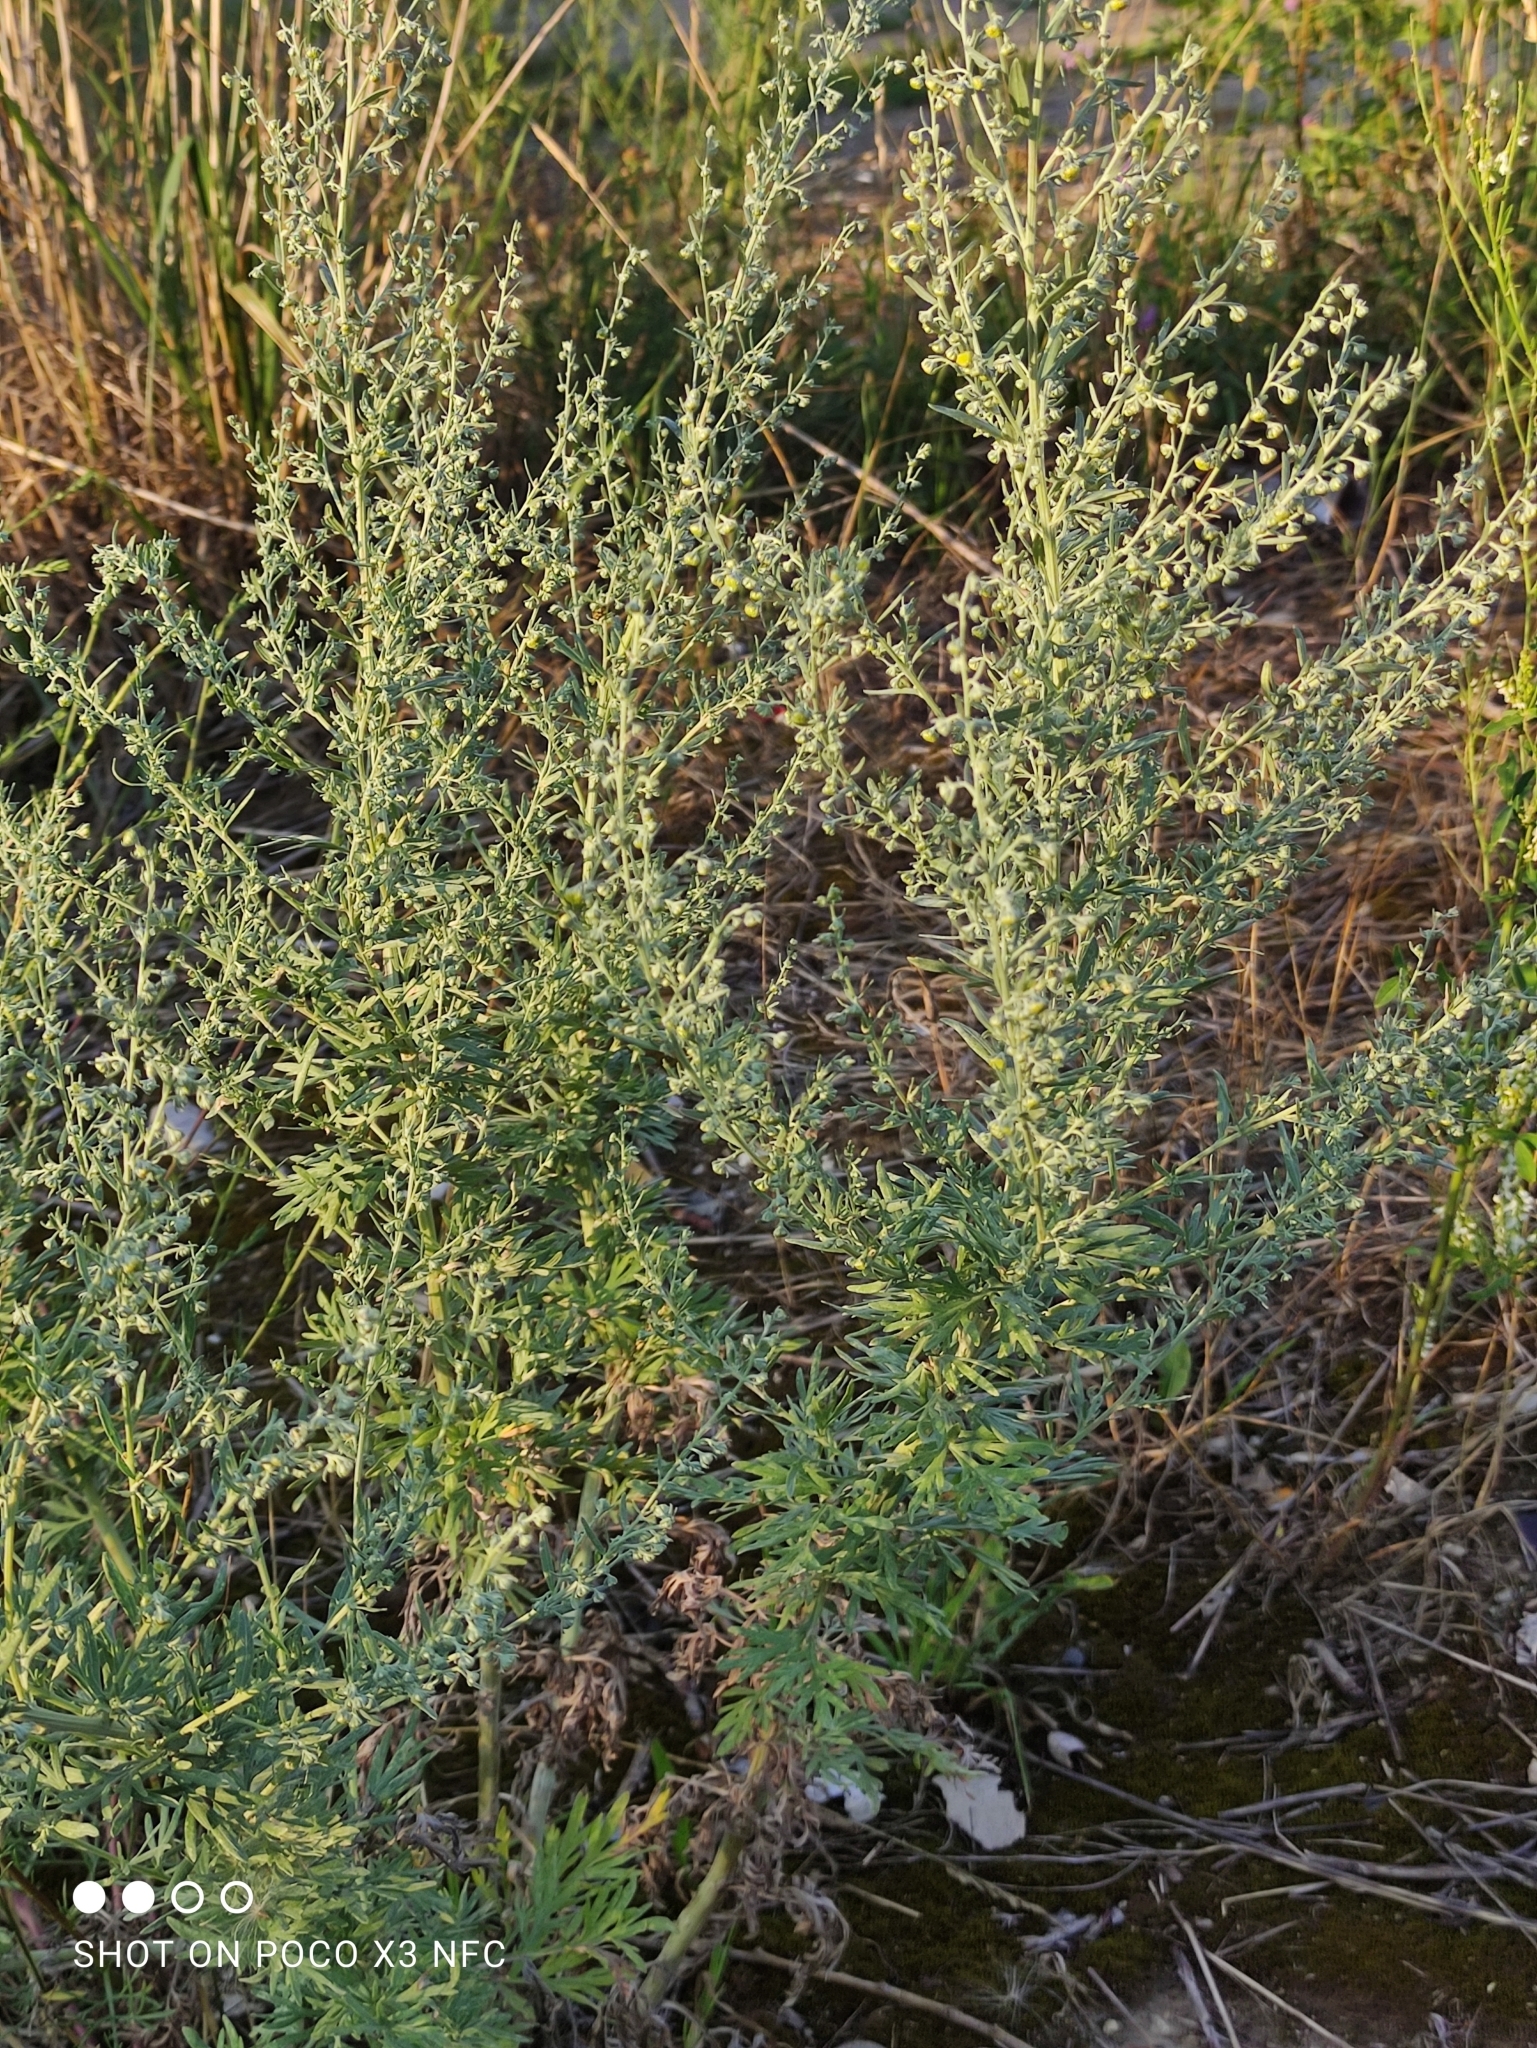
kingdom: Plantae
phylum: Tracheophyta
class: Magnoliopsida
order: Asterales
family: Asteraceae
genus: Artemisia
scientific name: Artemisia absinthium
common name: Wormwood
